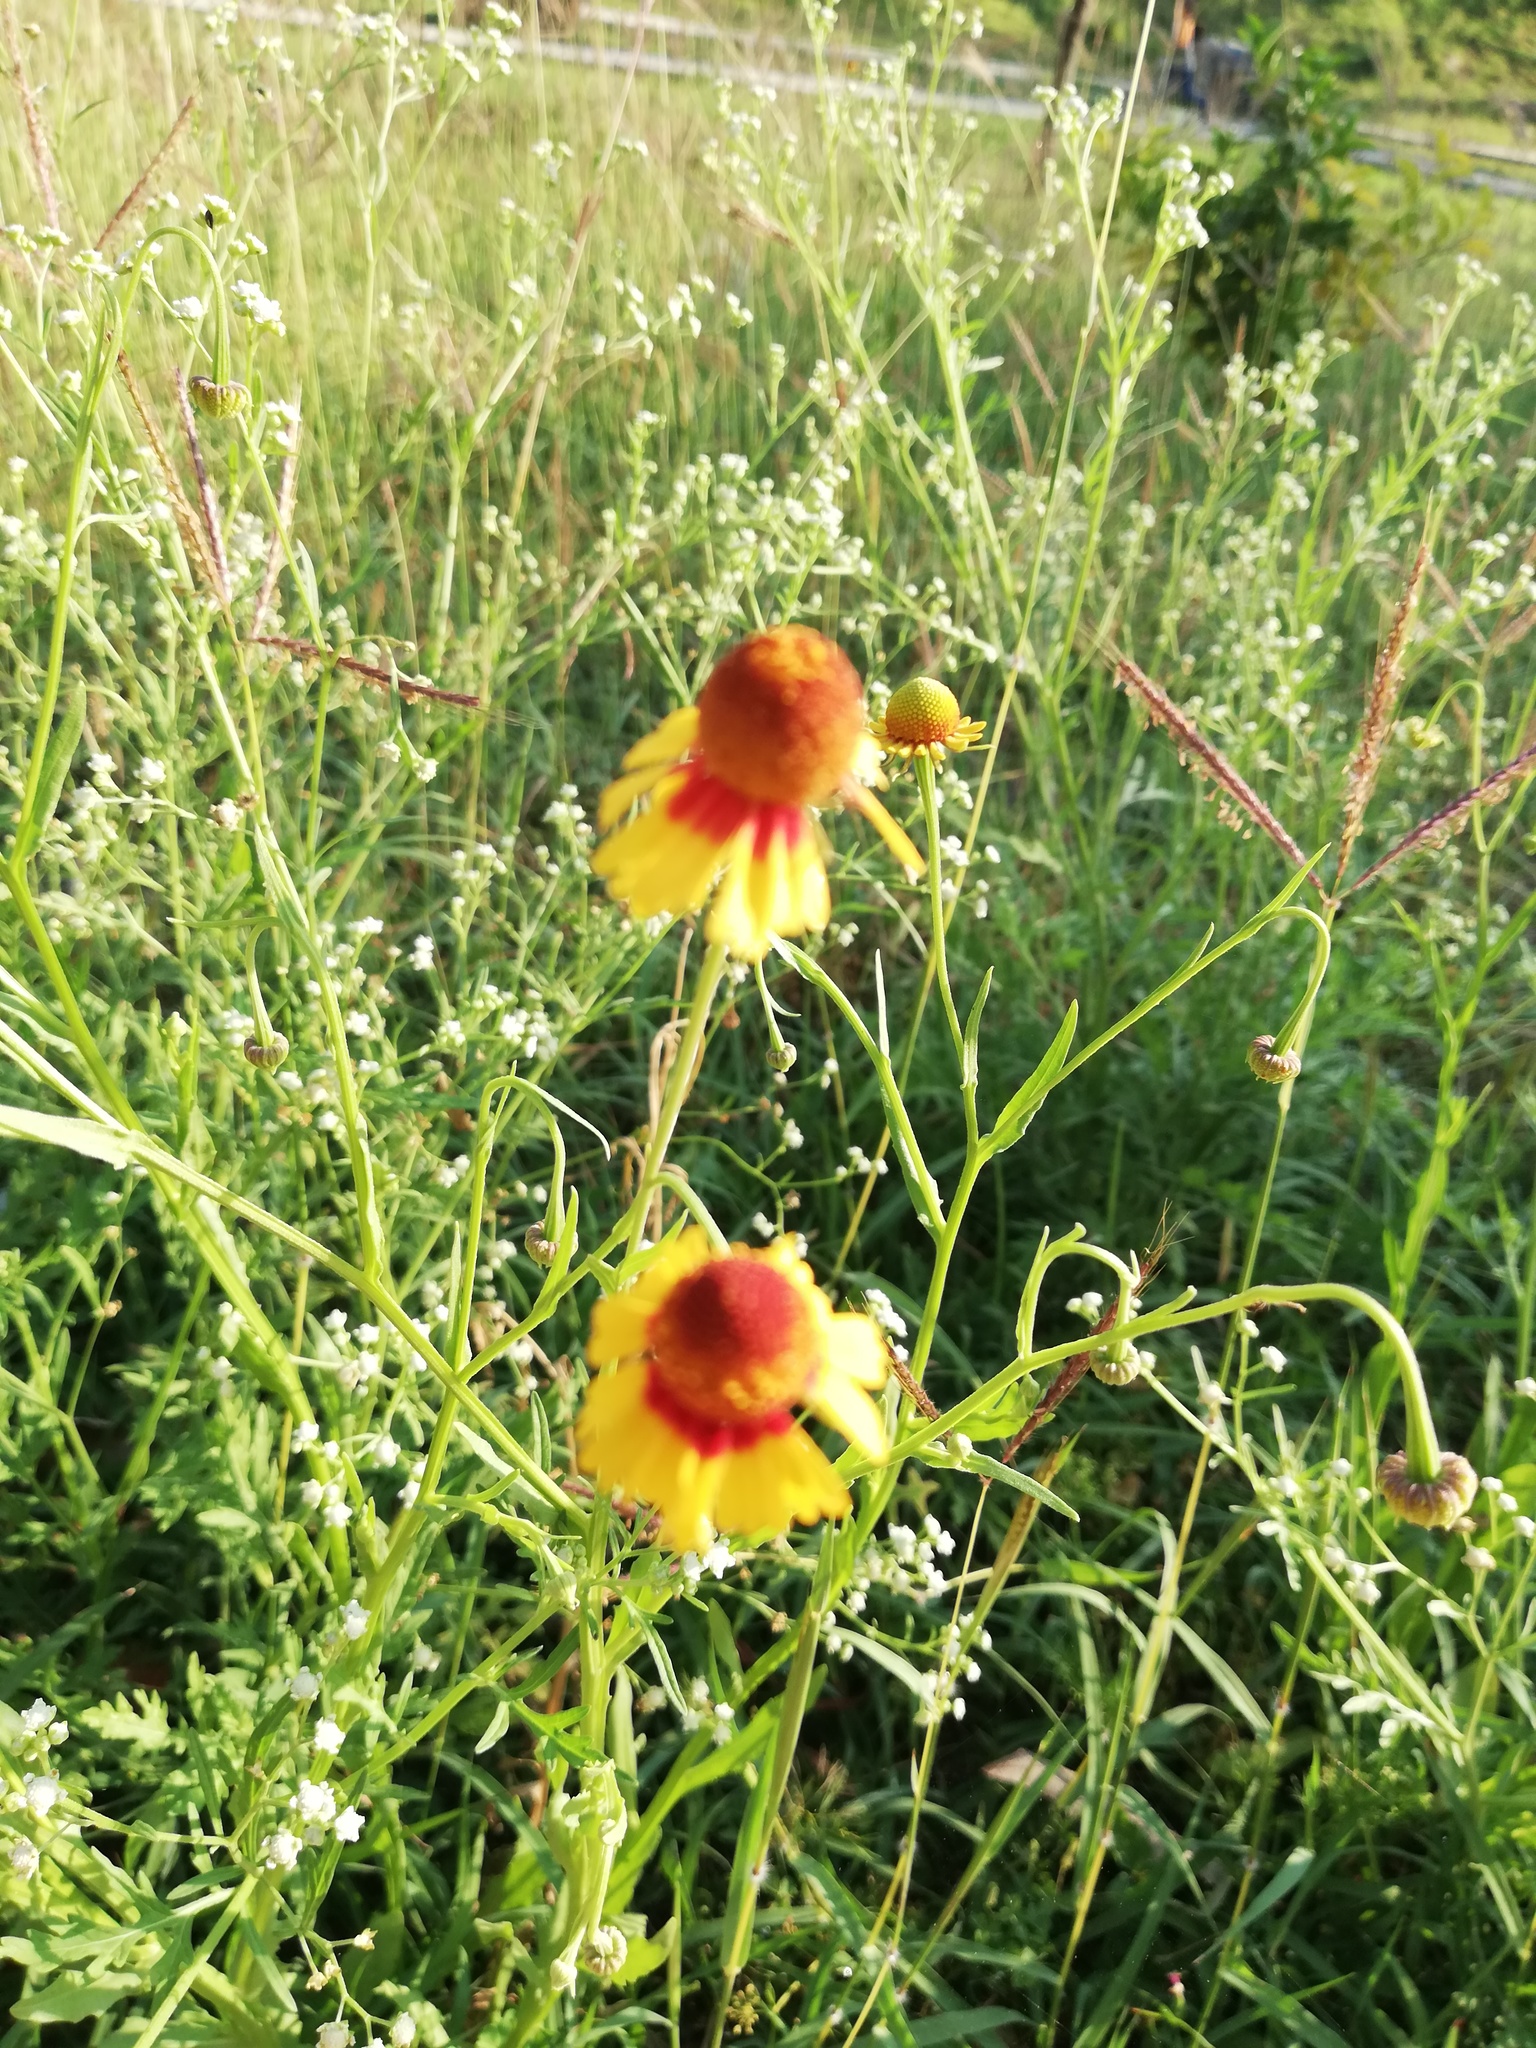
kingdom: Plantae
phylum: Tracheophyta
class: Magnoliopsida
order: Asterales
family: Asteraceae
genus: Helenium
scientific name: Helenium amphibolum
